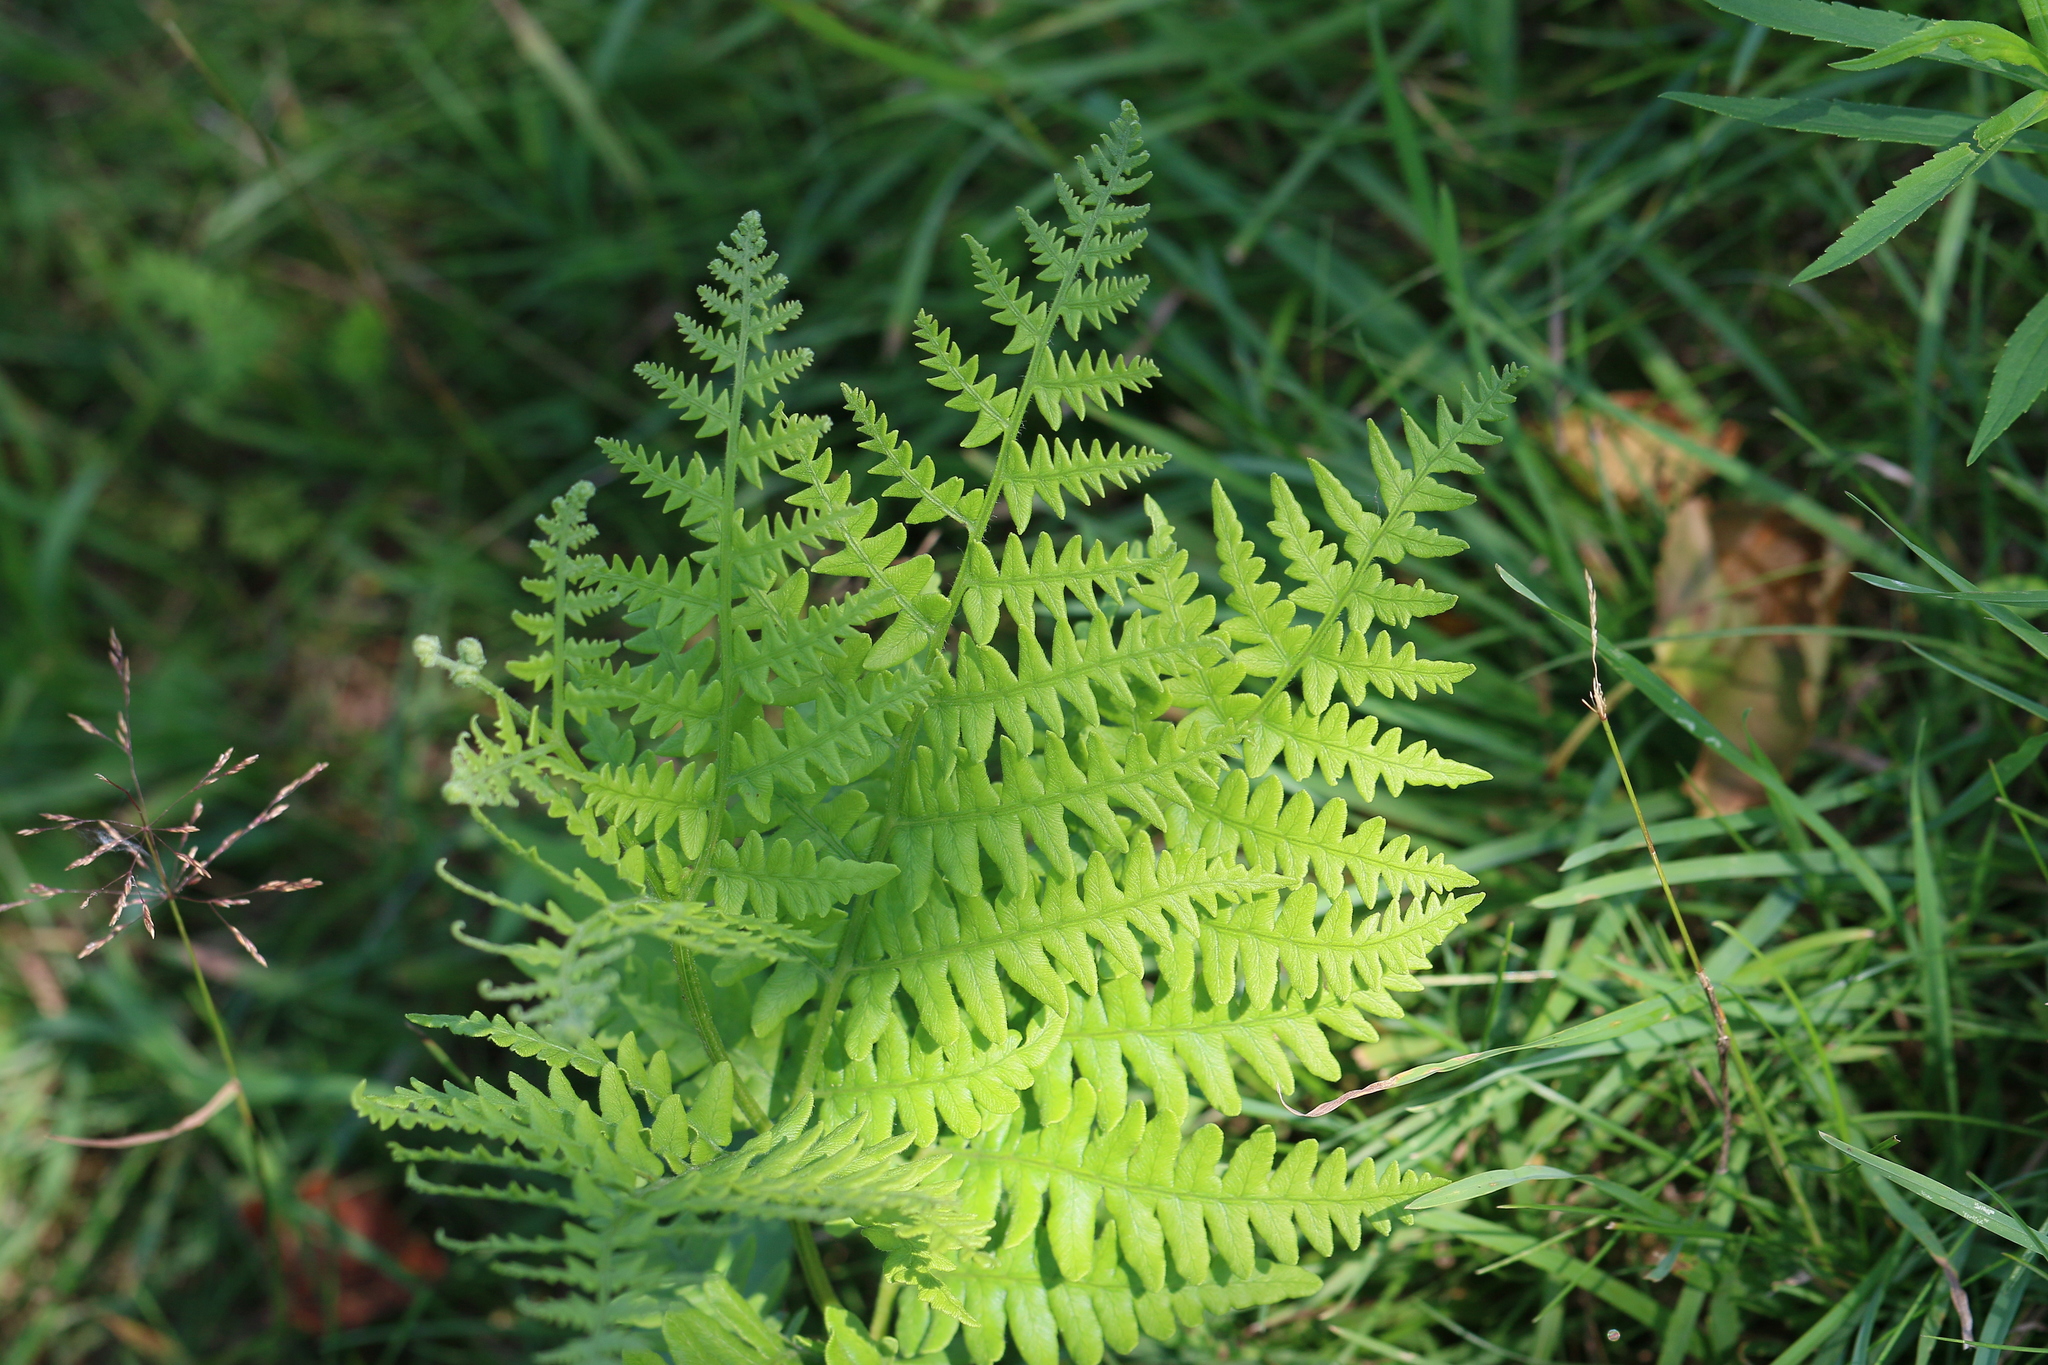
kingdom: Plantae
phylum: Tracheophyta
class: Polypodiopsida
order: Polypodiales
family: Dennstaedtiaceae
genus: Pteridium
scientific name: Pteridium aquilinum
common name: Bracken
